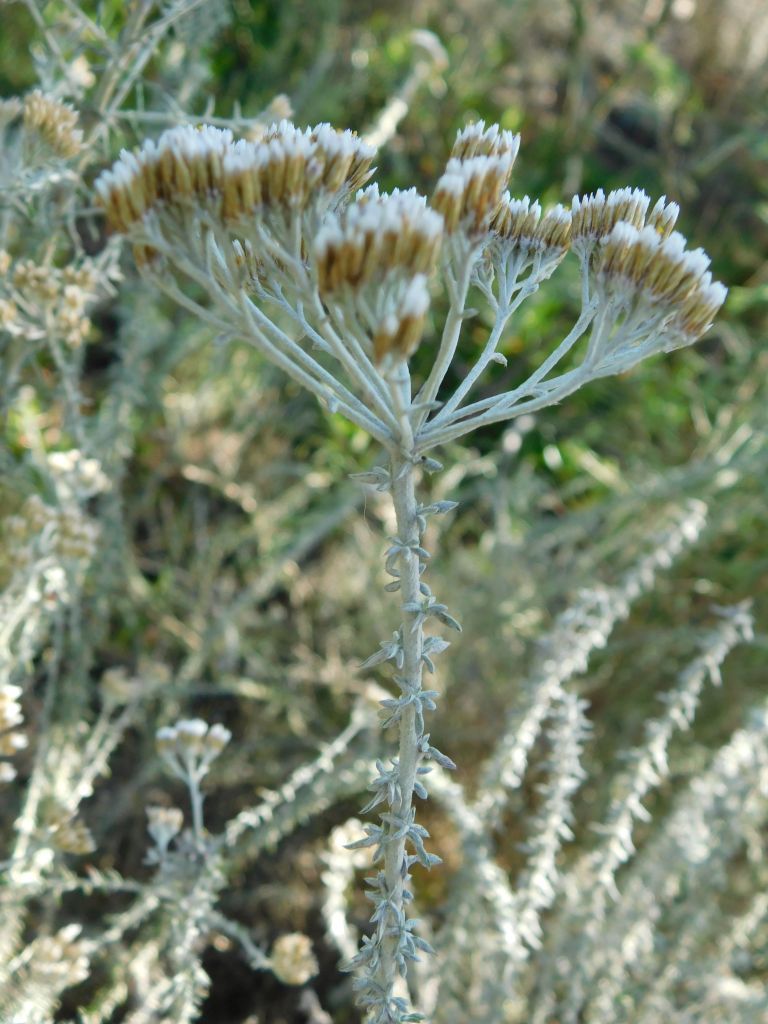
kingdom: Plantae
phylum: Tracheophyta
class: Magnoliopsida
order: Asterales
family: Asteraceae
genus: Metalasia
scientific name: Metalasia densa
